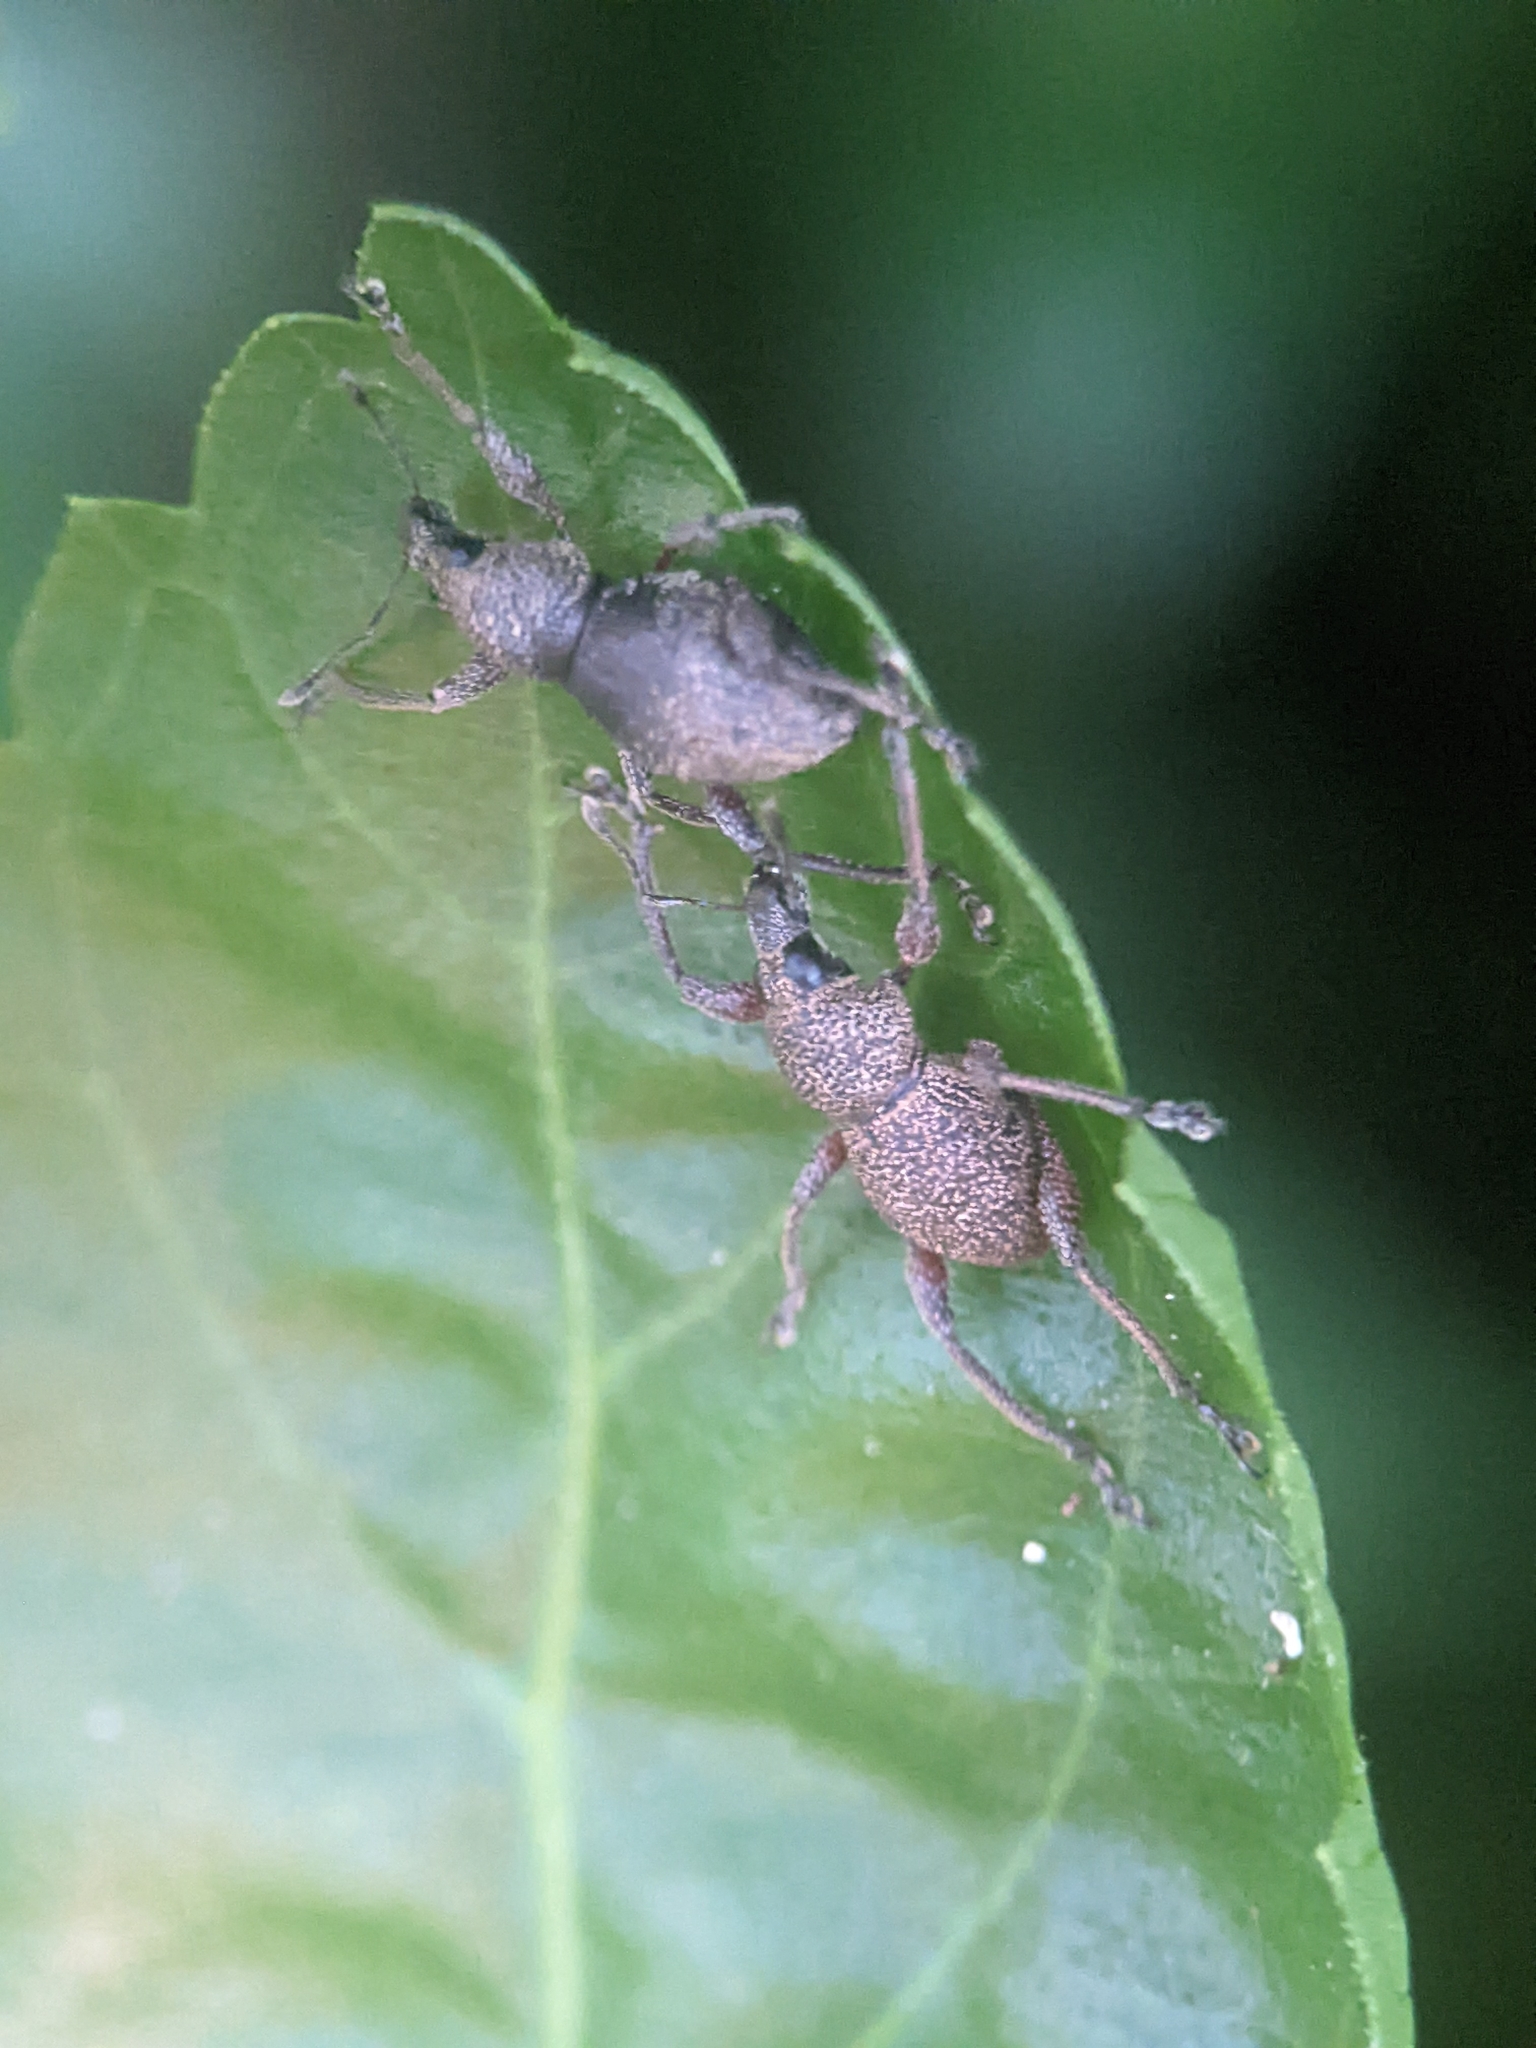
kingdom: Animalia
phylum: Arthropoda
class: Insecta
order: Coleoptera
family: Curculionidae
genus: Metapocyrtus
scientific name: Metapocyrtus adspersus
